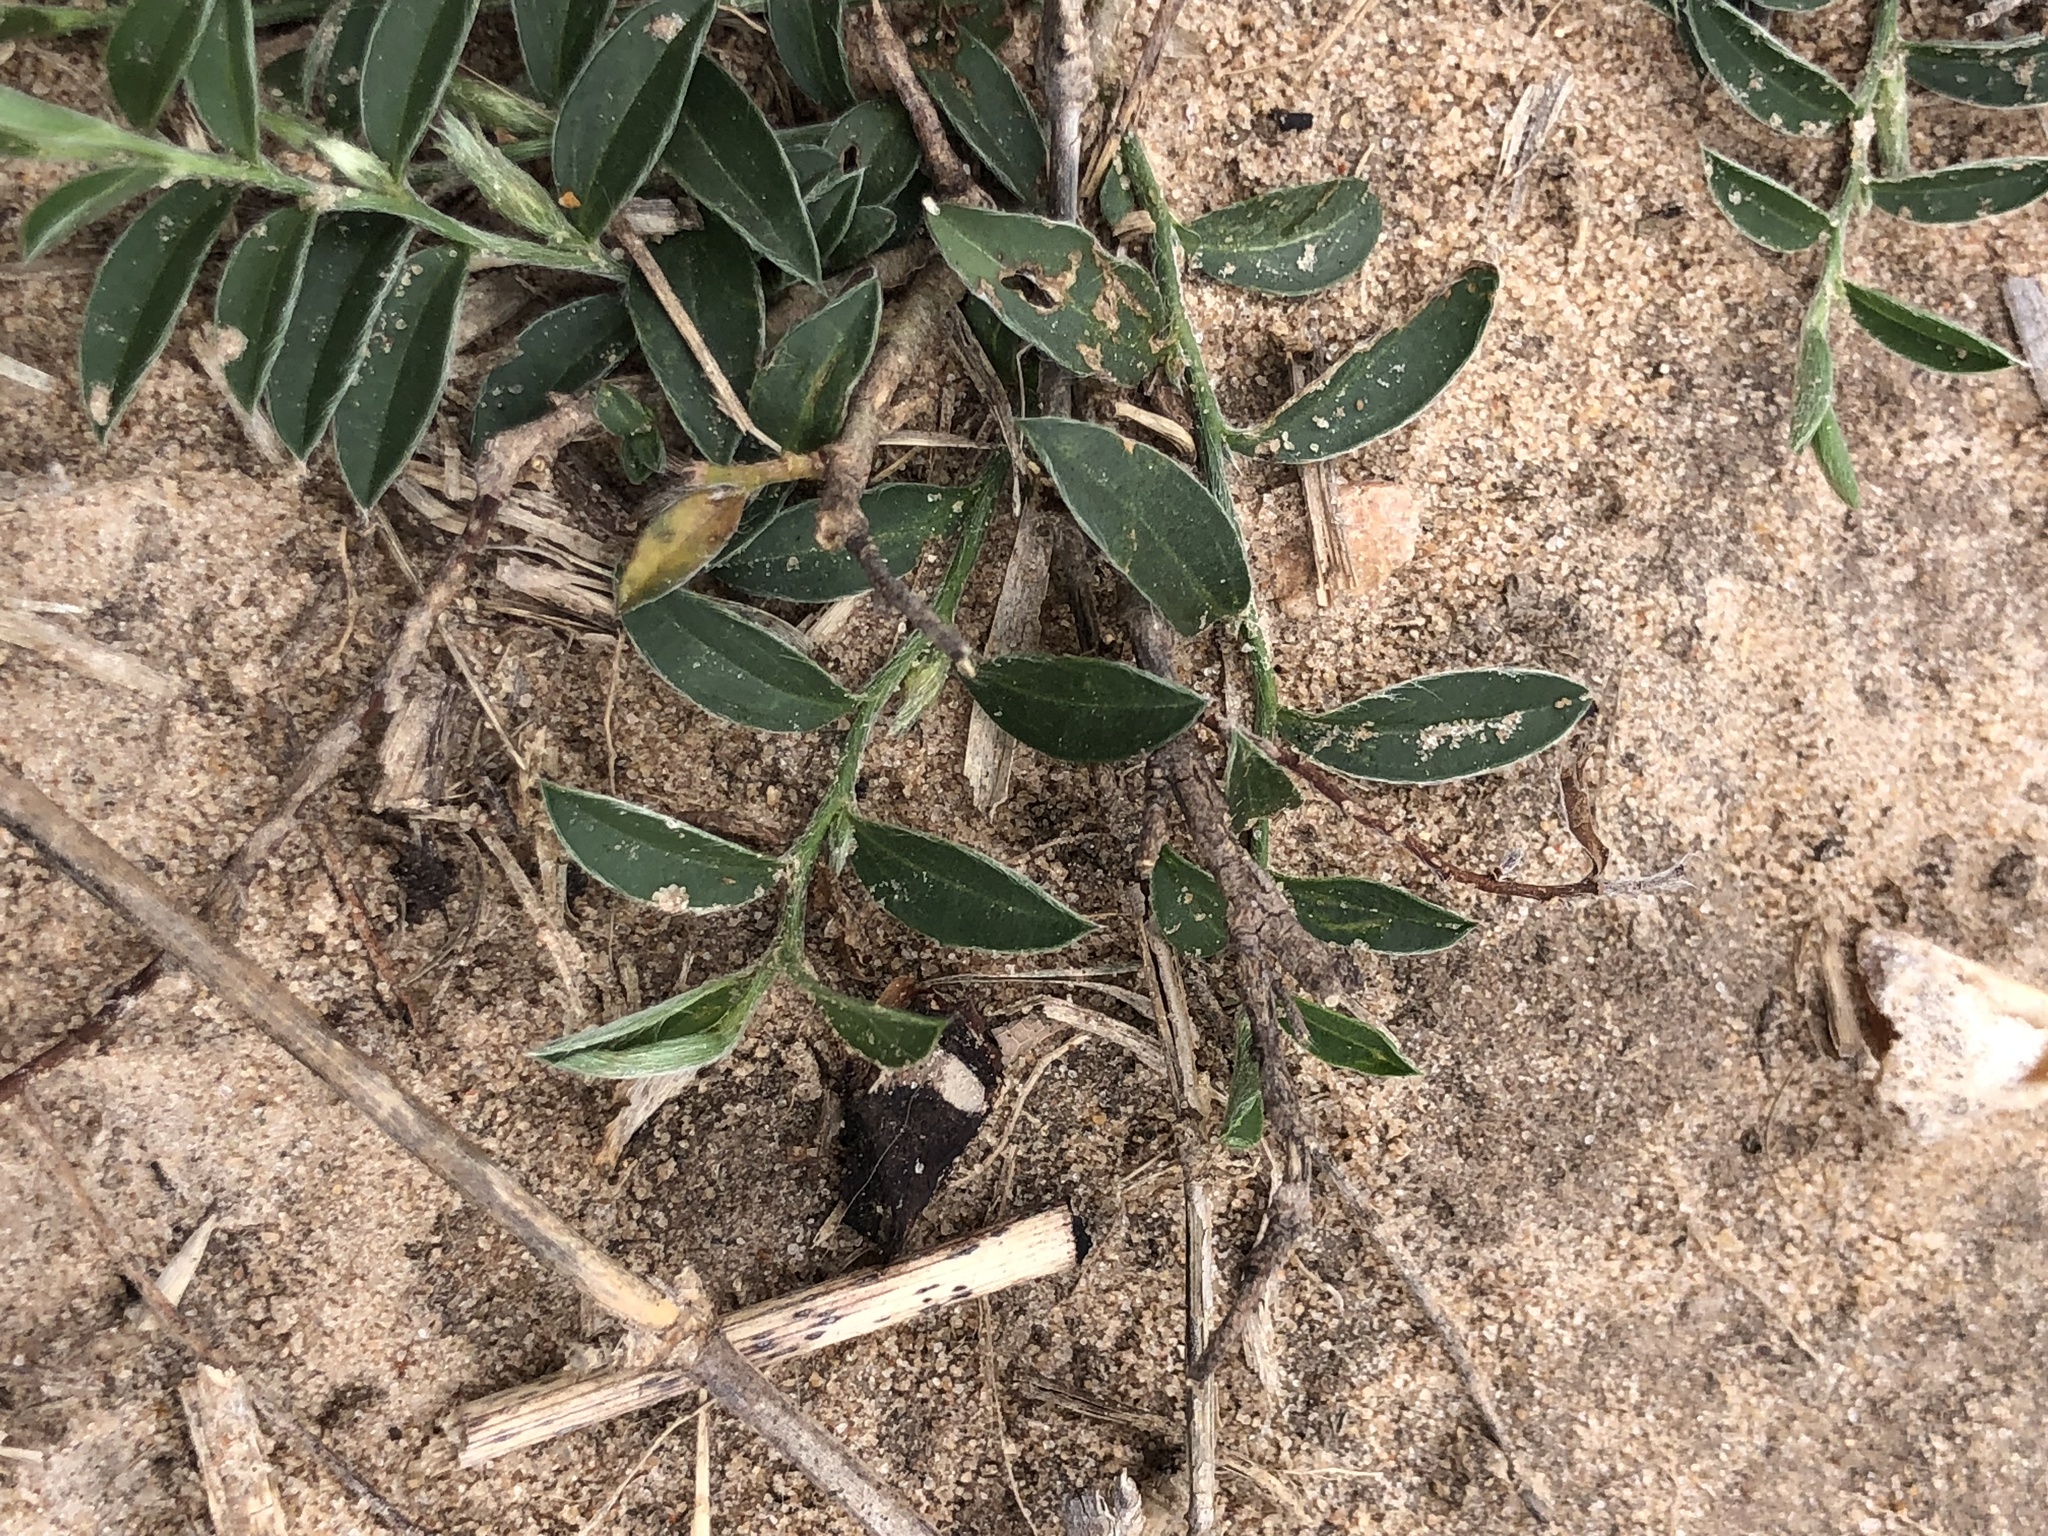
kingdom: Plantae
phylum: Tracheophyta
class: Magnoliopsida
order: Solanales
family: Convolvulaceae
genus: Evolvulus
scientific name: Evolvulus sericeus
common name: Blue dots
